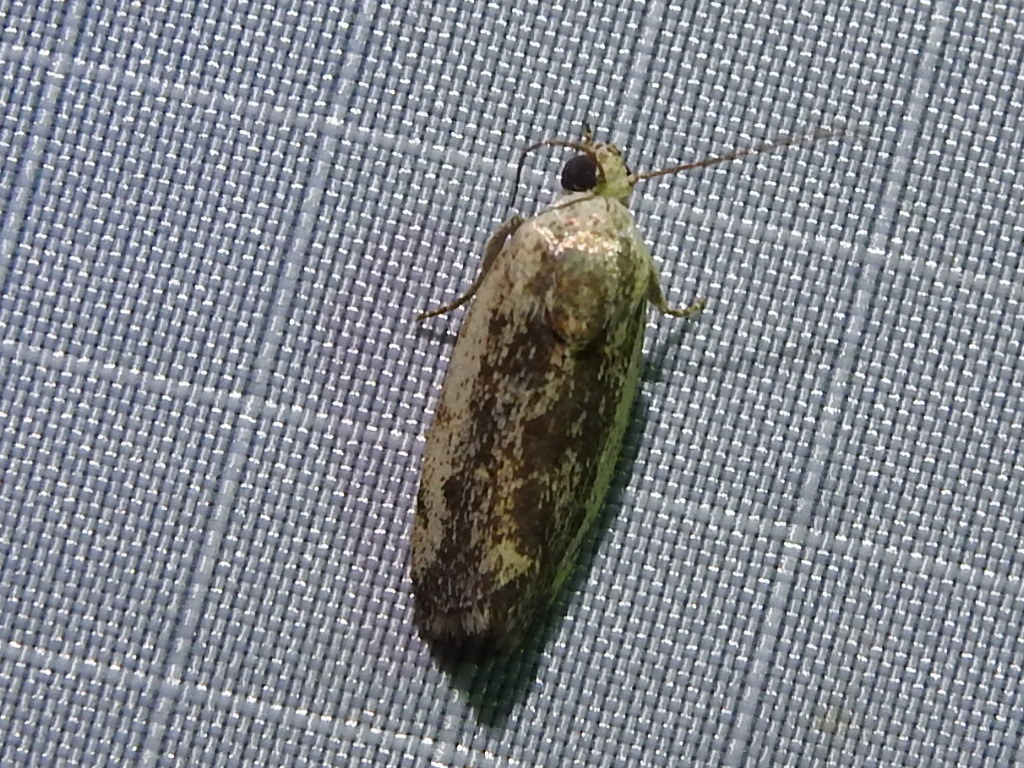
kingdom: Animalia
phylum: Arthropoda
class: Insecta
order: Lepidoptera
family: Noctuidae
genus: Acontia
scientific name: Acontia fasciatella
